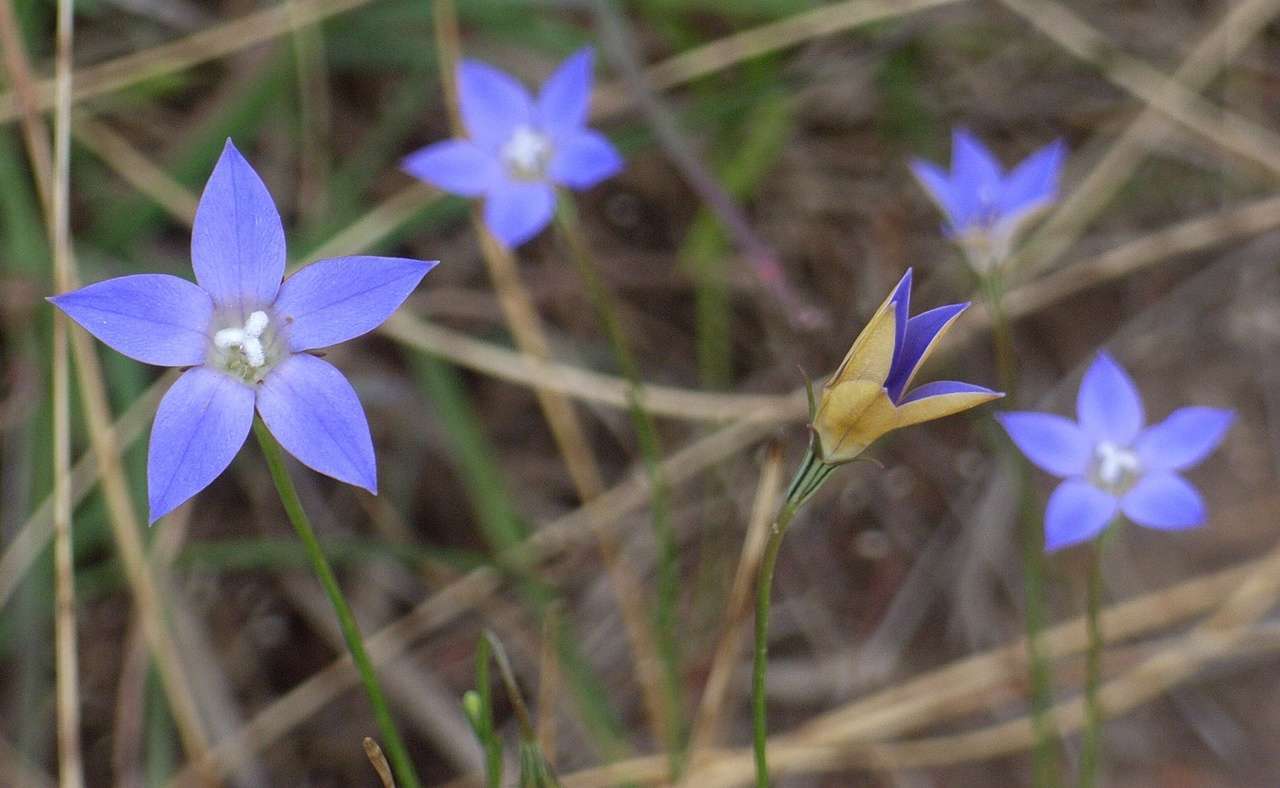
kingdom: Plantae
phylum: Tracheophyta
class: Magnoliopsida
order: Asterales
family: Campanulaceae
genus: Wahlenbergia
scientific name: Wahlenbergia luteola
